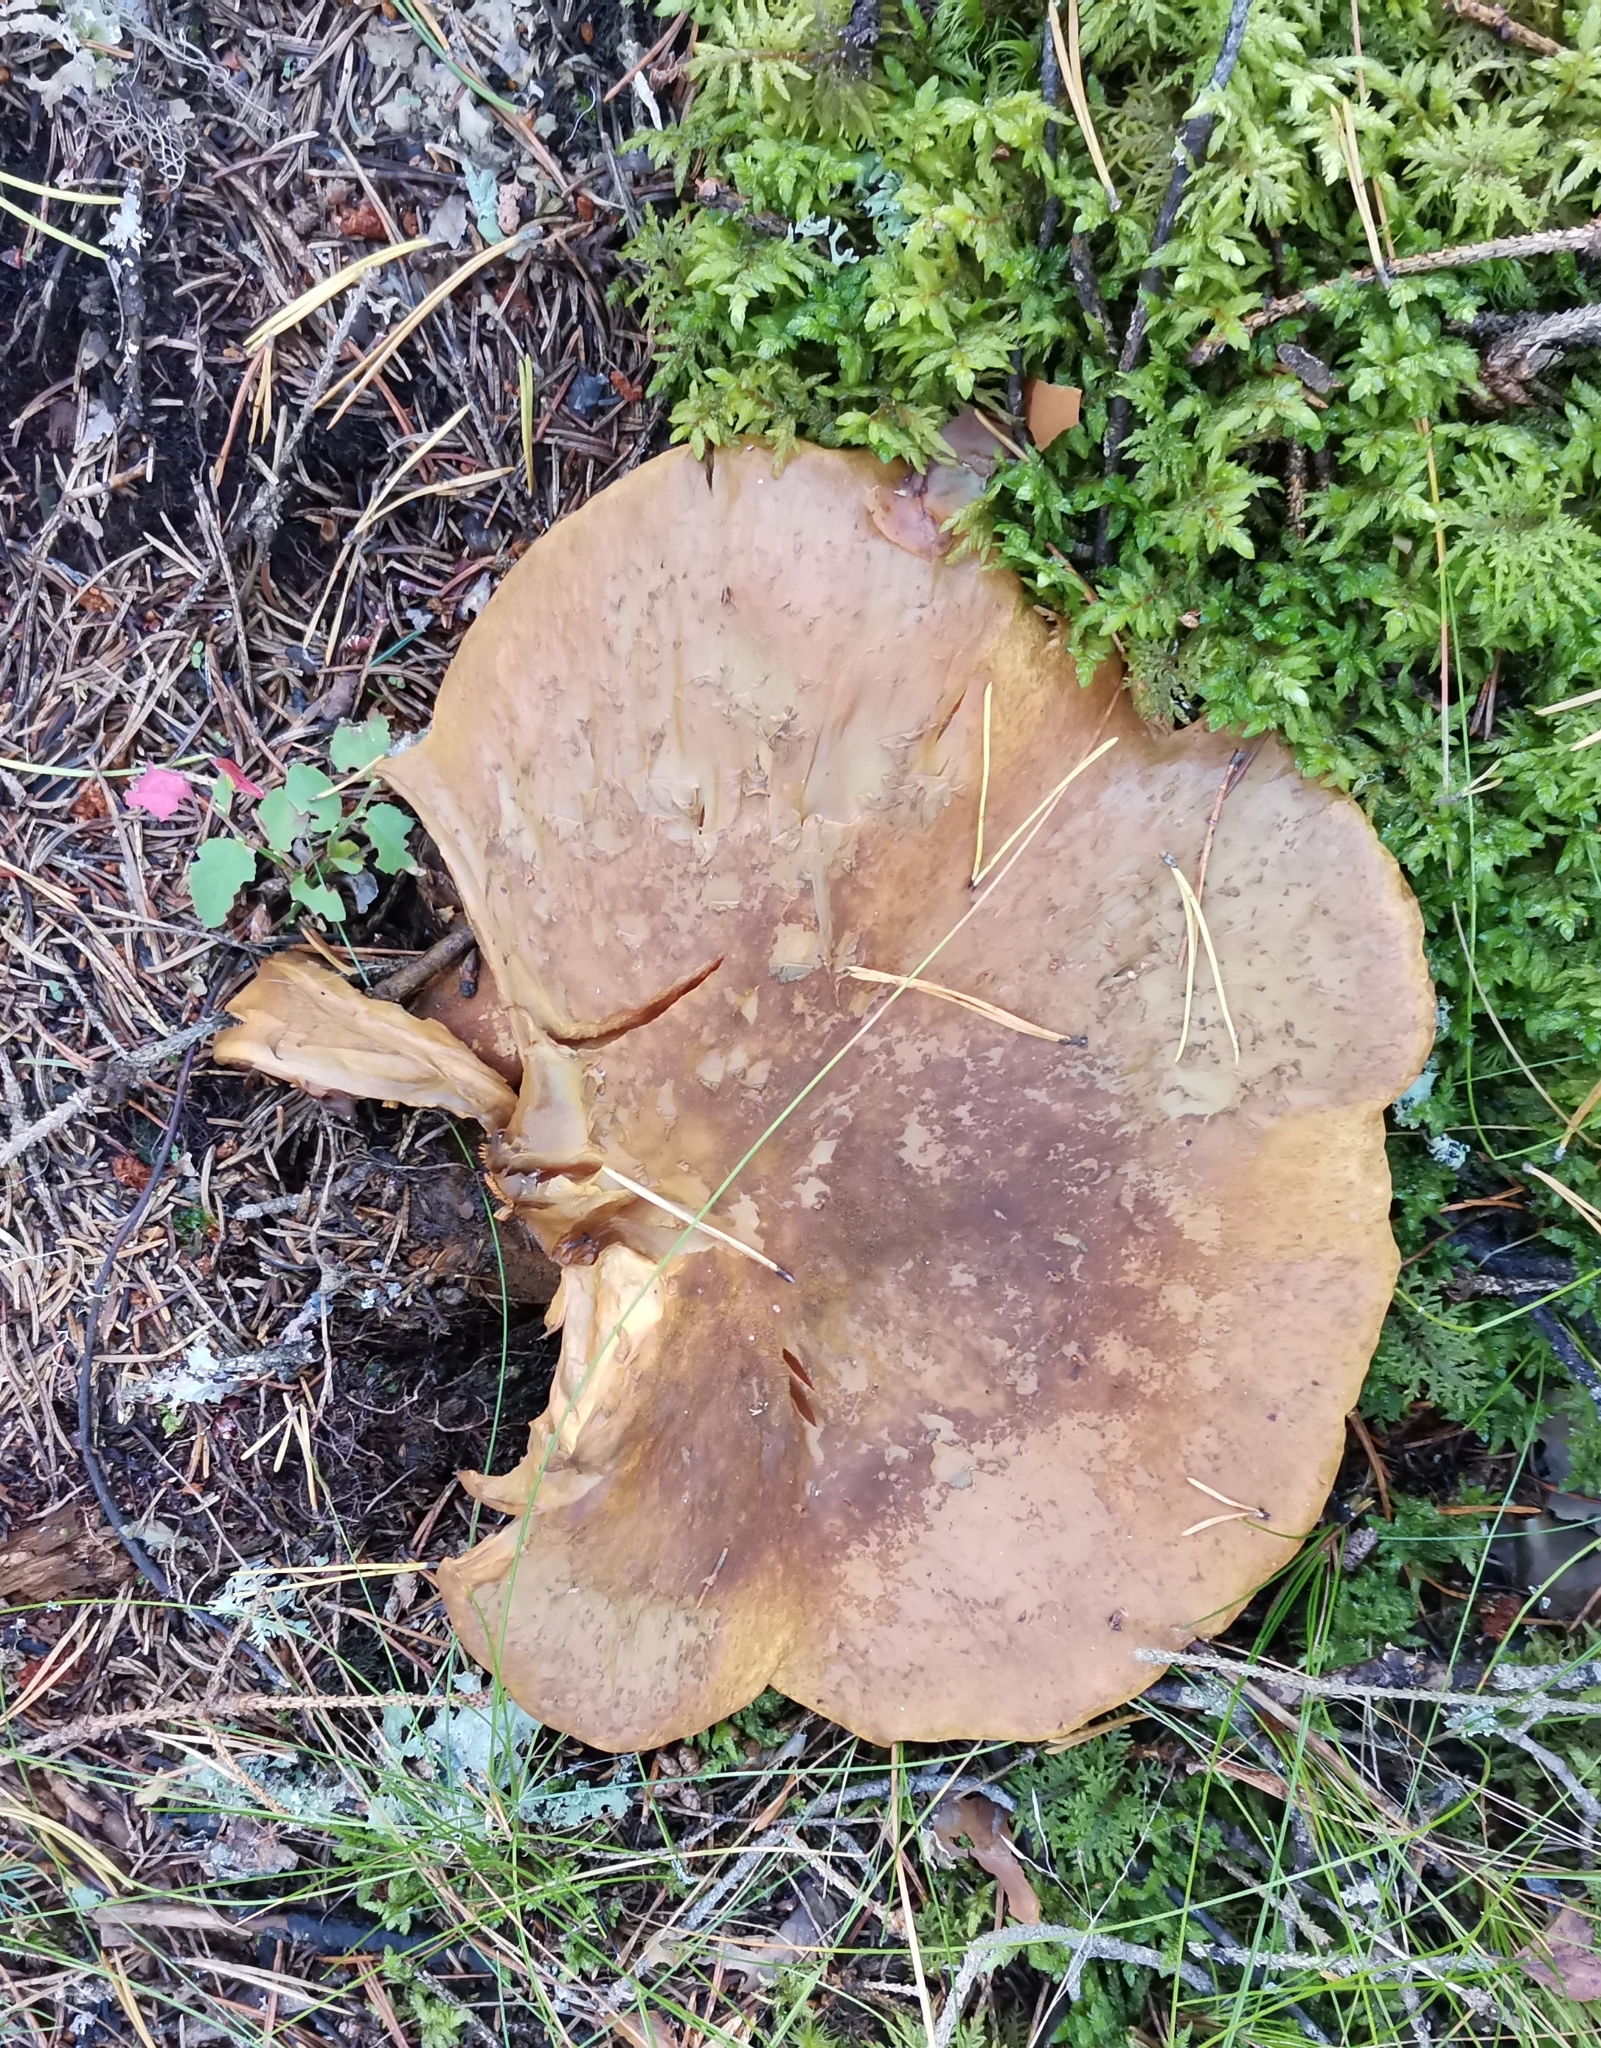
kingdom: Fungi
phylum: Basidiomycota
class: Agaricomycetes
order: Boletales
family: Tapinellaceae
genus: Tapinella
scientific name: Tapinella atrotomentosa
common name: Velvet rollrim
